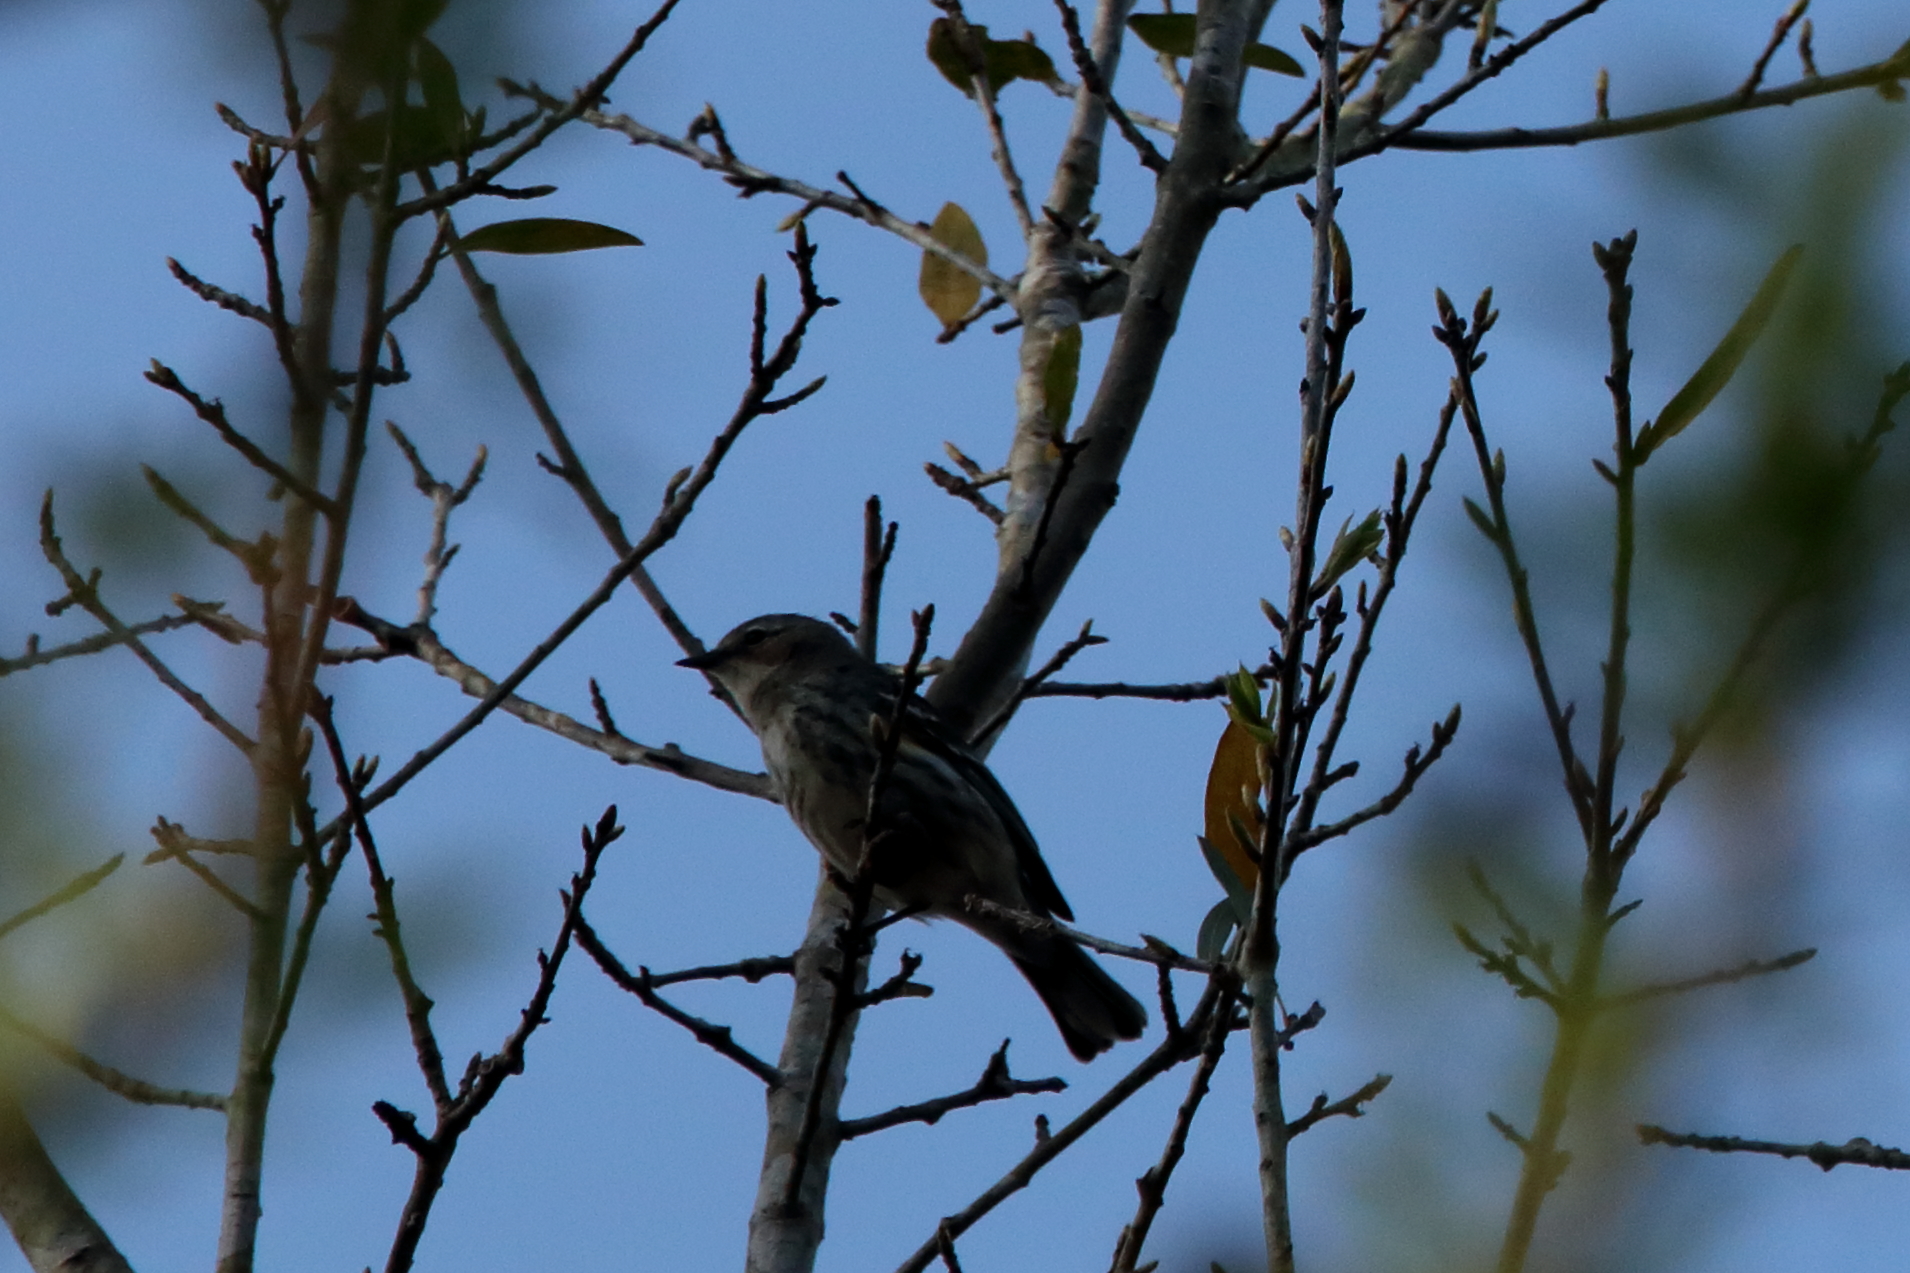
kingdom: Animalia
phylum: Chordata
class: Aves
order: Passeriformes
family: Parulidae
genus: Setophaga
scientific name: Setophaga coronata
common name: Myrtle warbler
